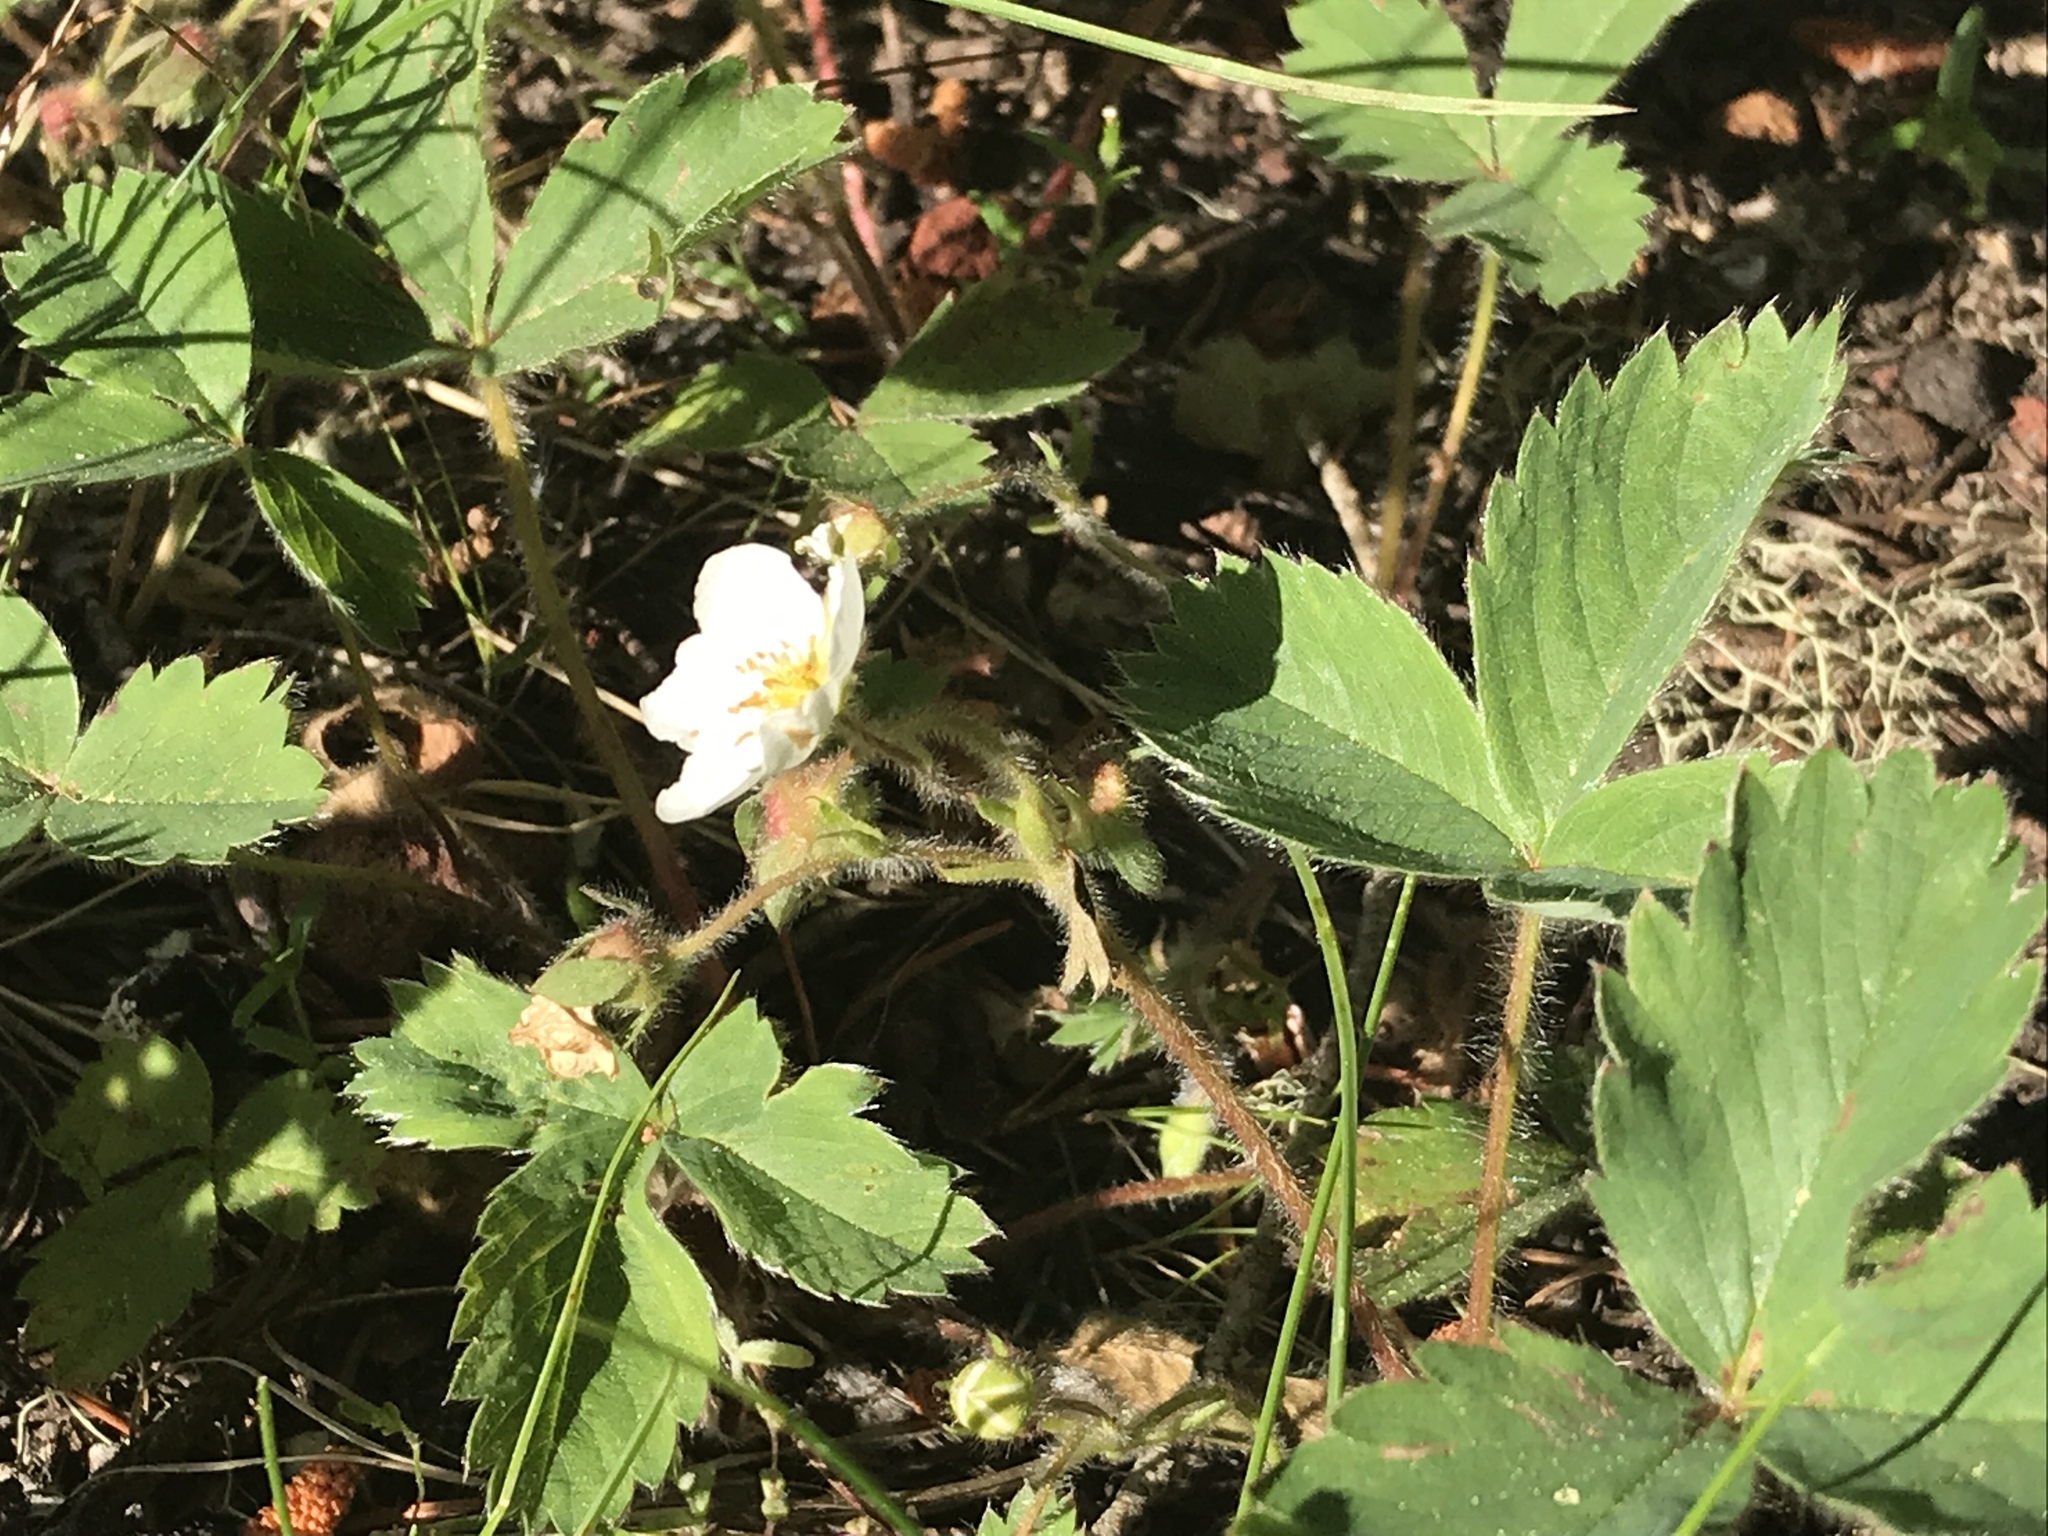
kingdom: Plantae
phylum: Tracheophyta
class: Magnoliopsida
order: Rosales
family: Rosaceae
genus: Fragaria
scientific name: Fragaria cascadensis
